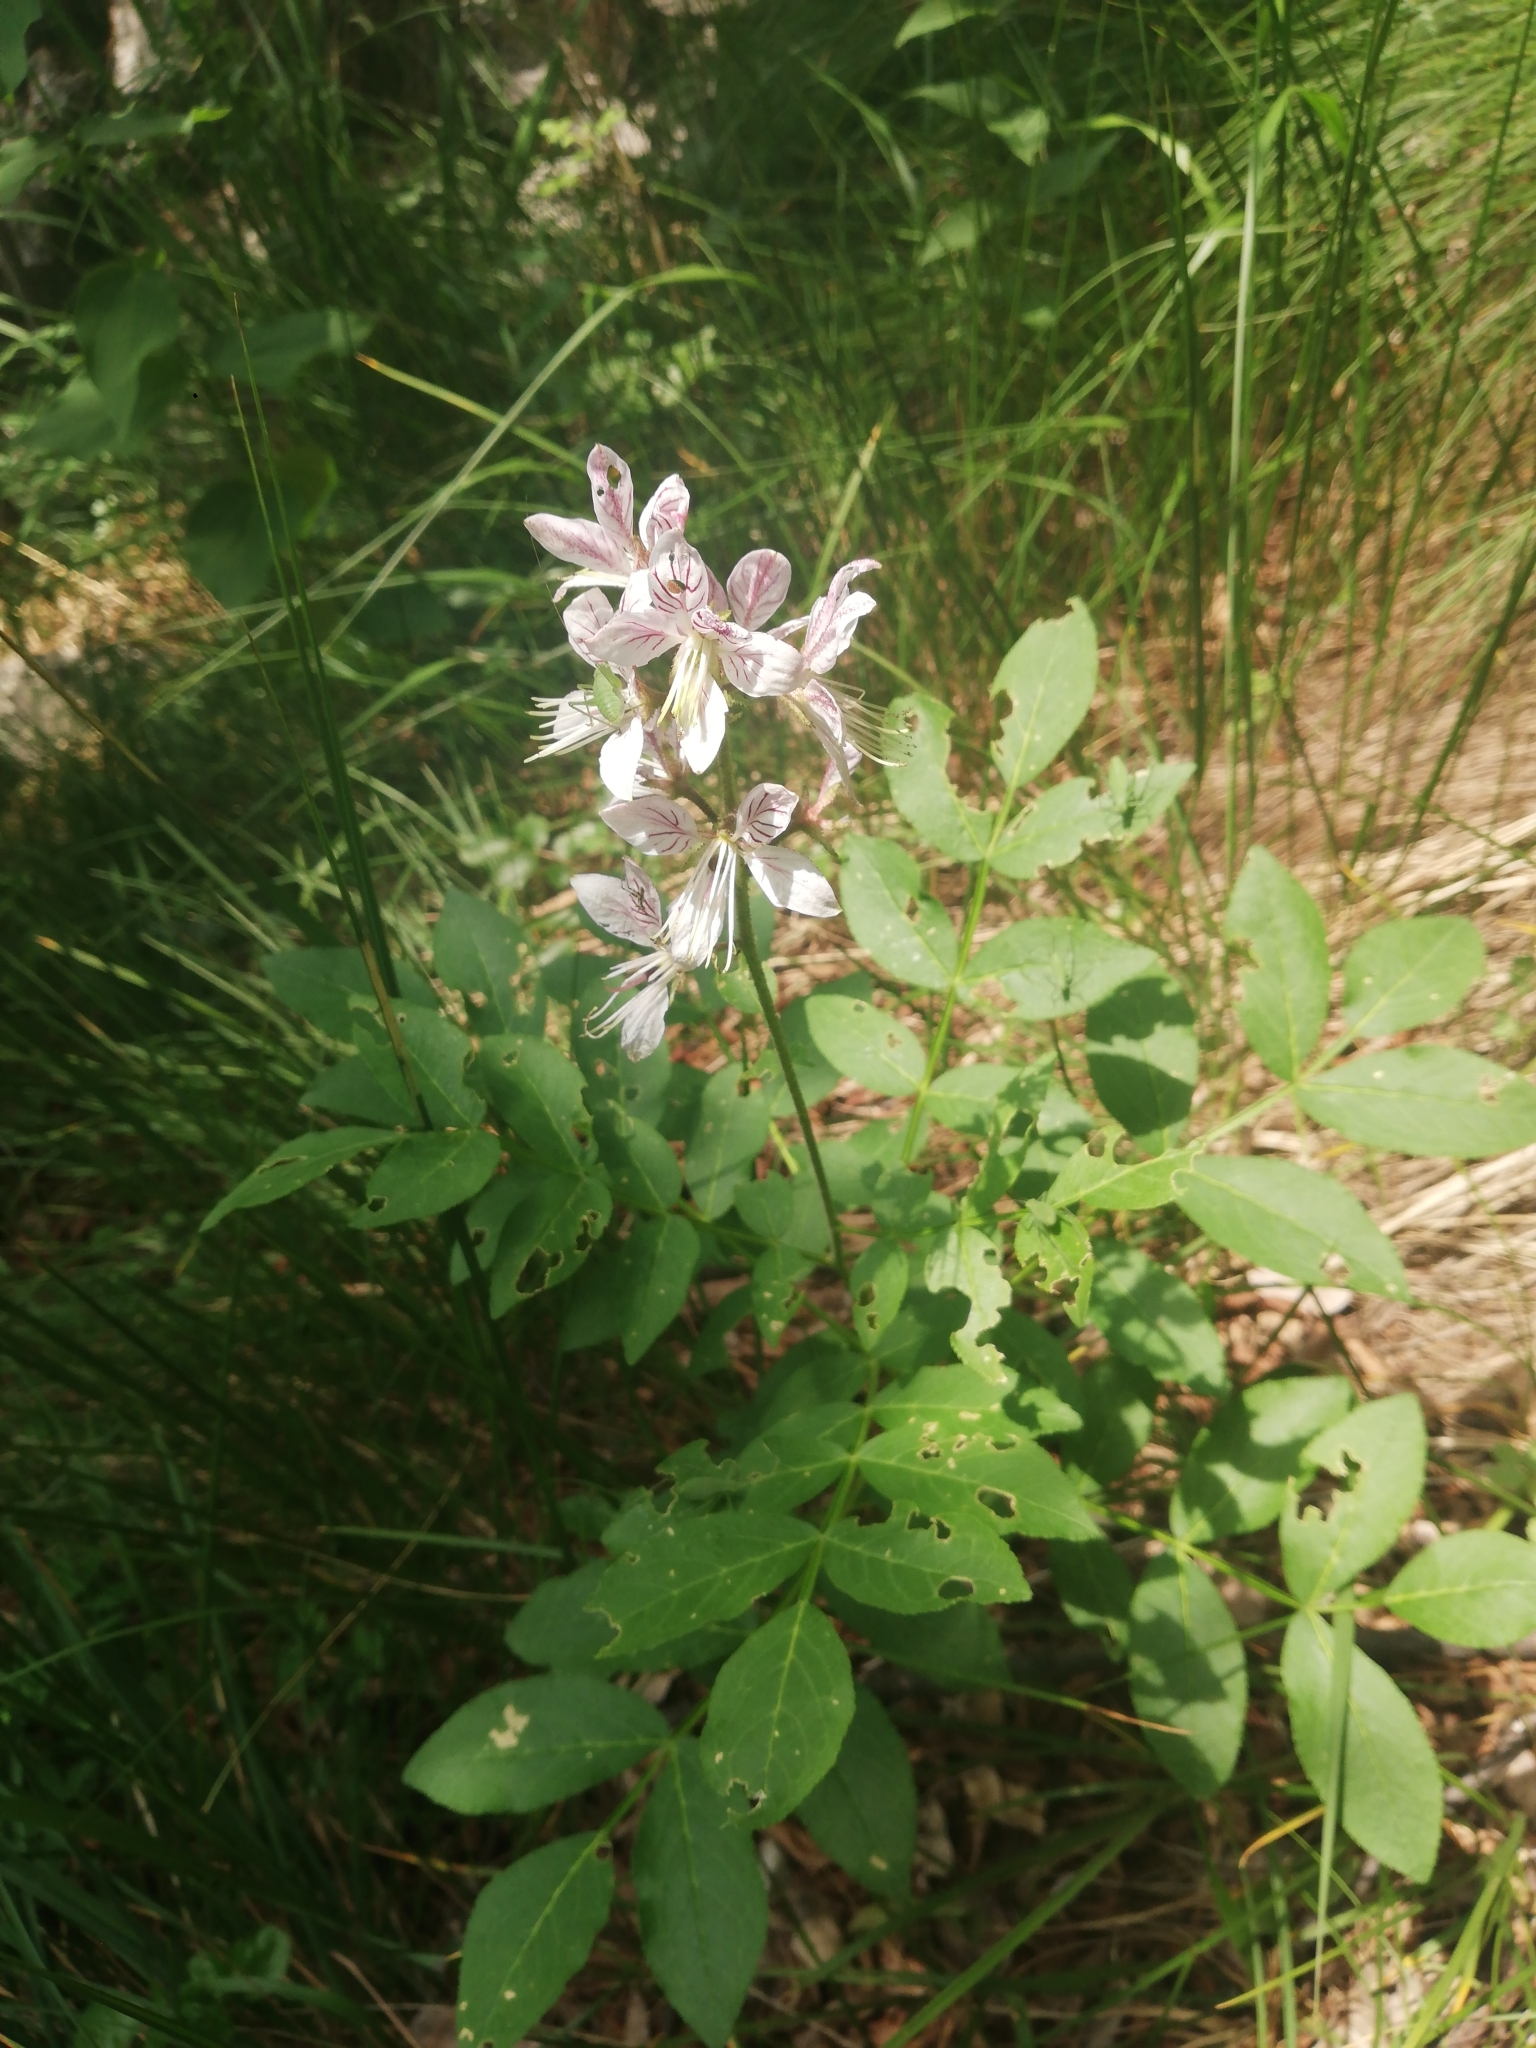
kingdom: Plantae
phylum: Tracheophyta
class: Magnoliopsida
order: Sapindales
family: Rutaceae
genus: Dictamnus
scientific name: Dictamnus albus
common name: Gasplant
